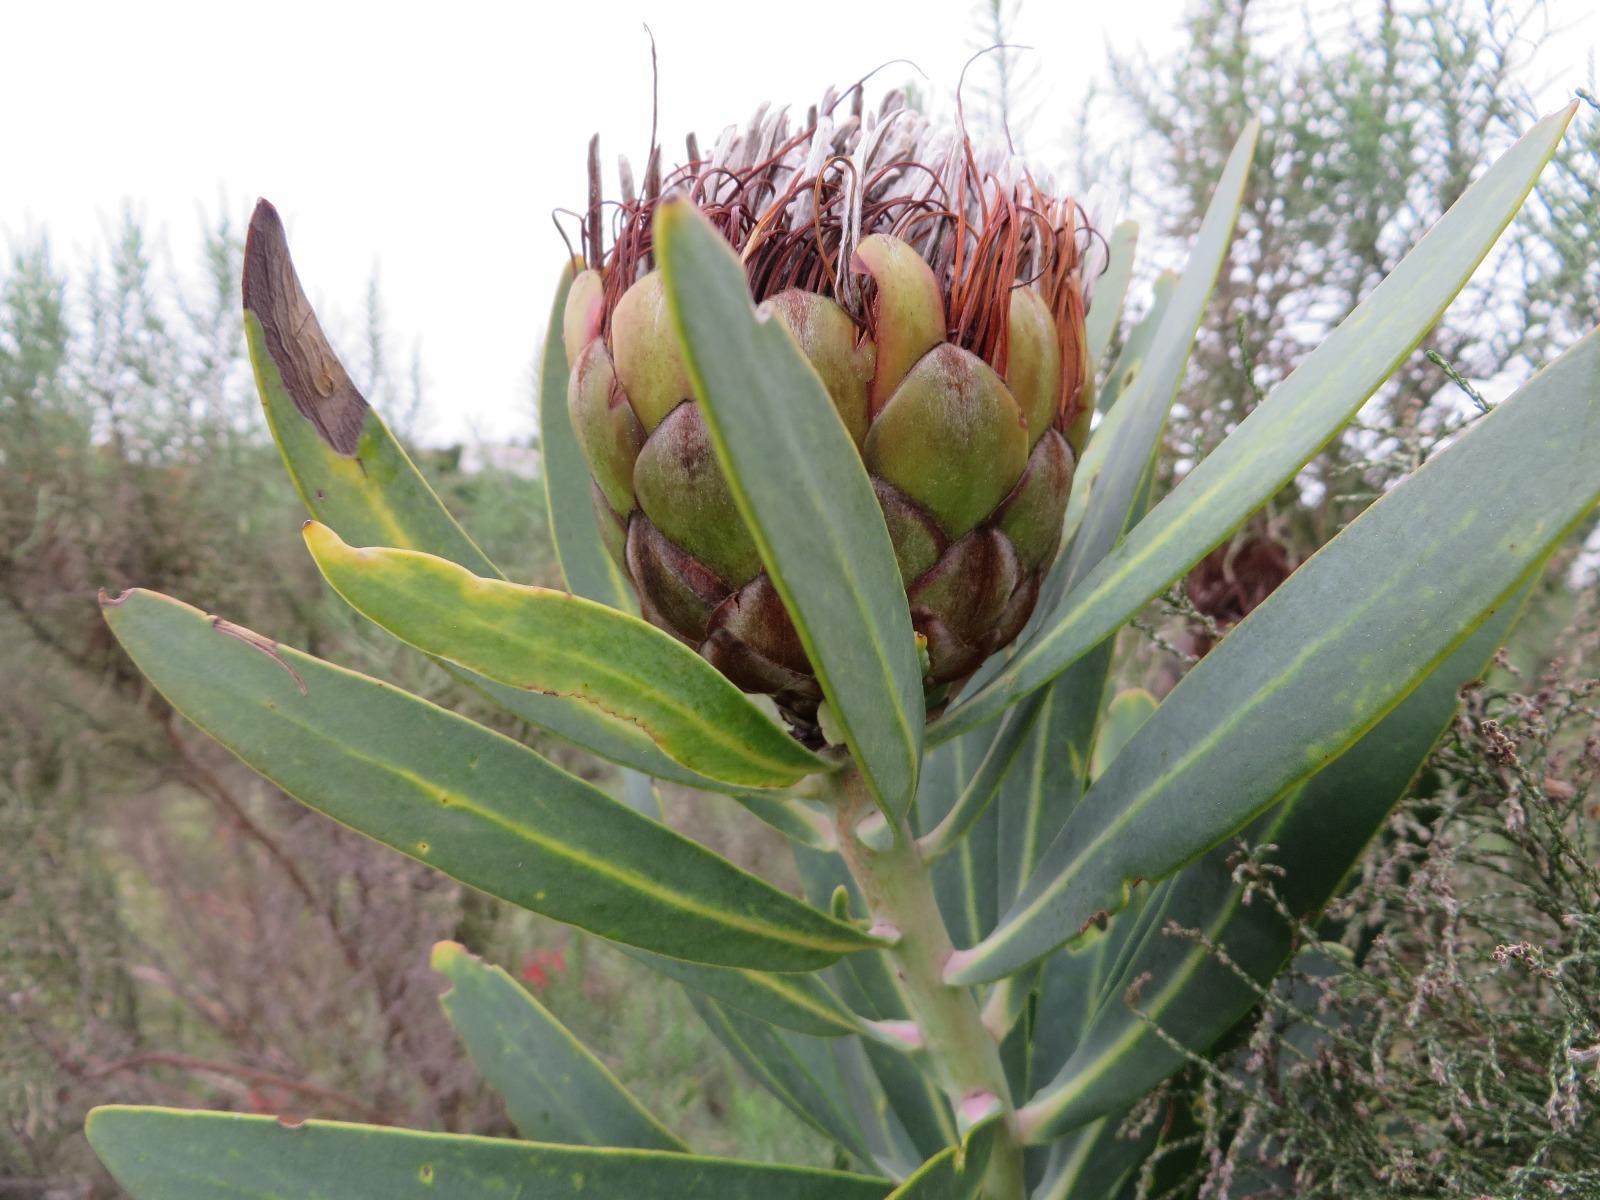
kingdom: Plantae
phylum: Tracheophyta
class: Magnoliopsida
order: Proteales
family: Proteaceae
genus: Protea
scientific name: Protea nitida
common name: Tree protea
